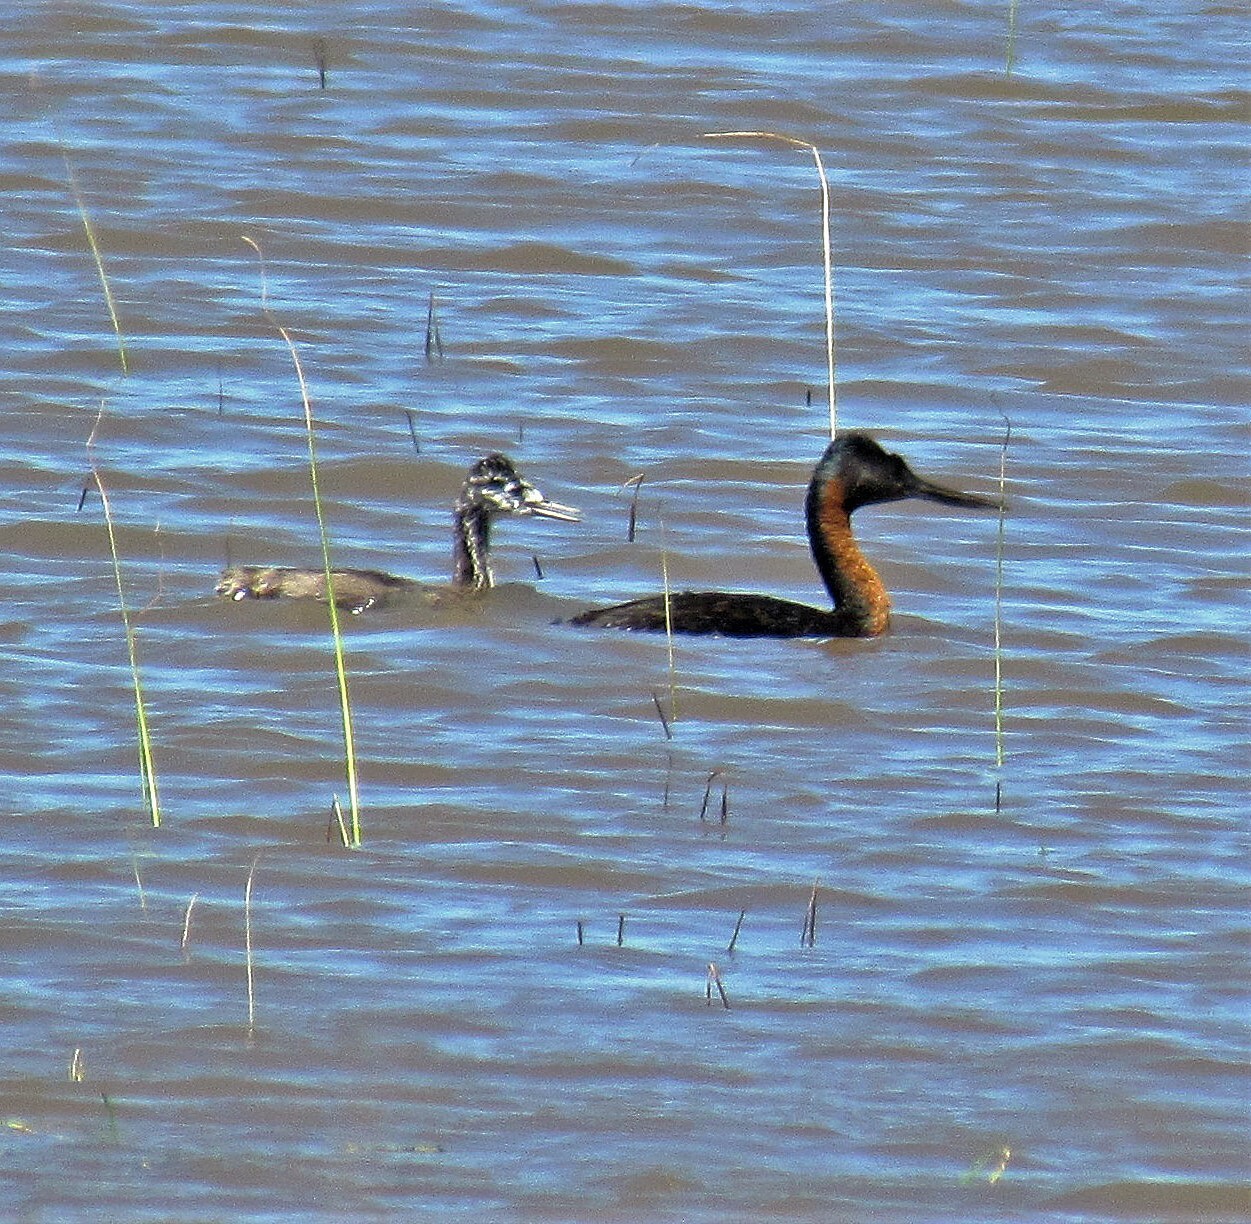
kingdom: Animalia
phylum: Chordata
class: Aves
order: Podicipediformes
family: Podicipedidae
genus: Podiceps
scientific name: Podiceps major
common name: Great grebe
